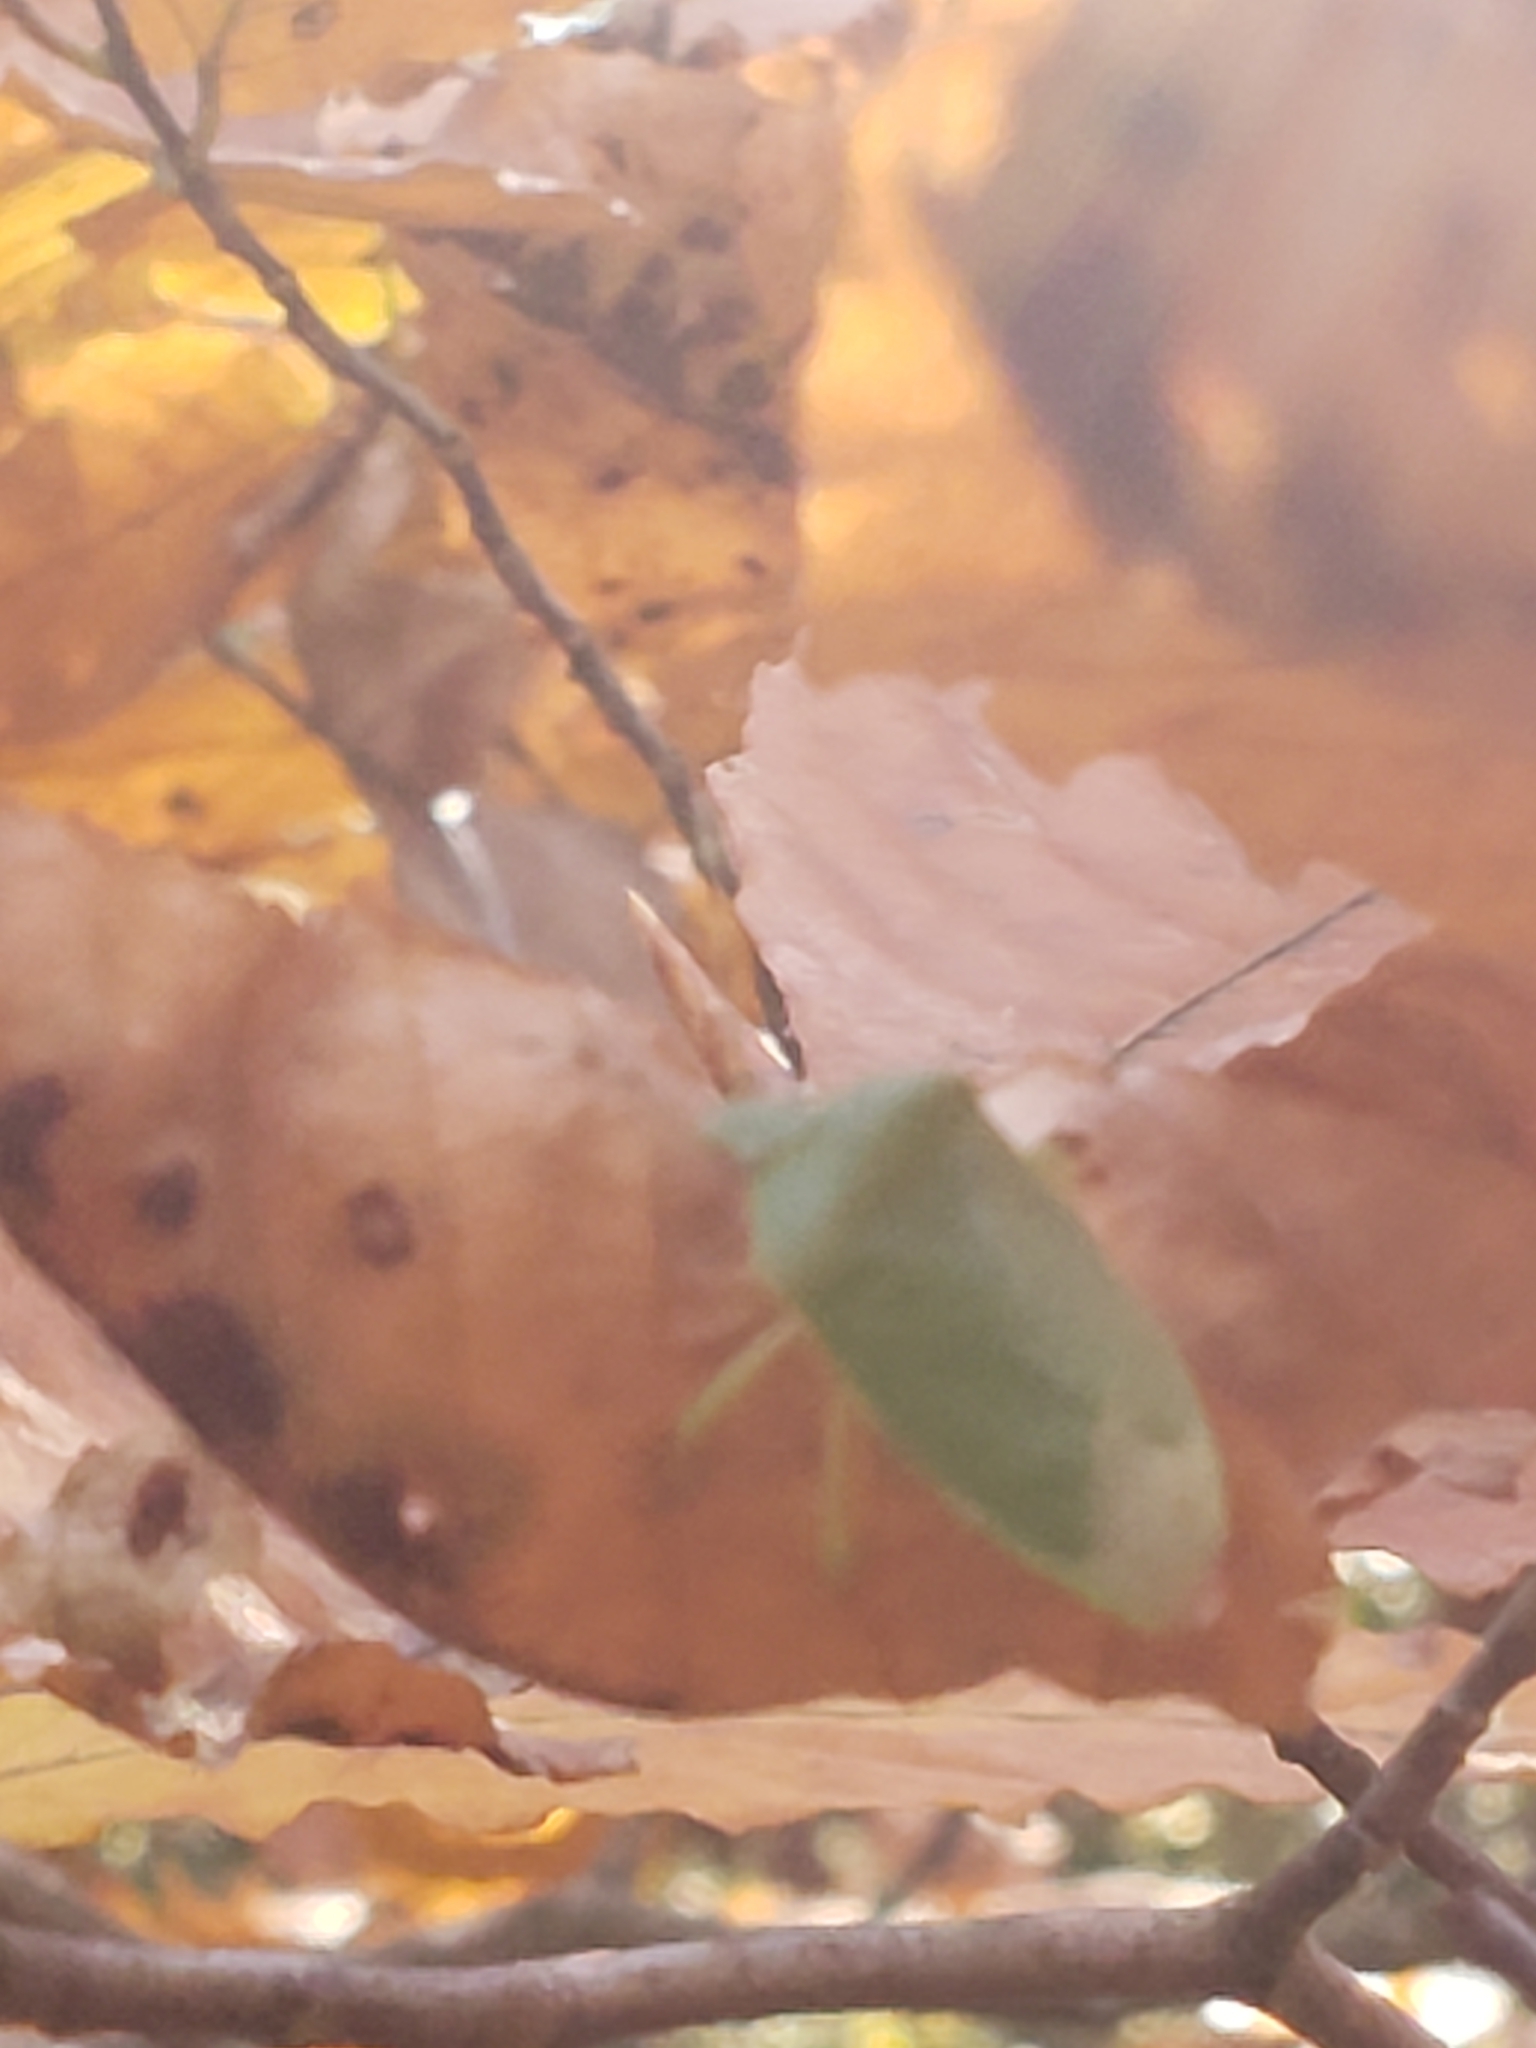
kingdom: Animalia
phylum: Arthropoda
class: Insecta
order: Hemiptera
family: Pentatomidae
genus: Chinavia
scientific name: Chinavia hilaris
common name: Green stink bug
